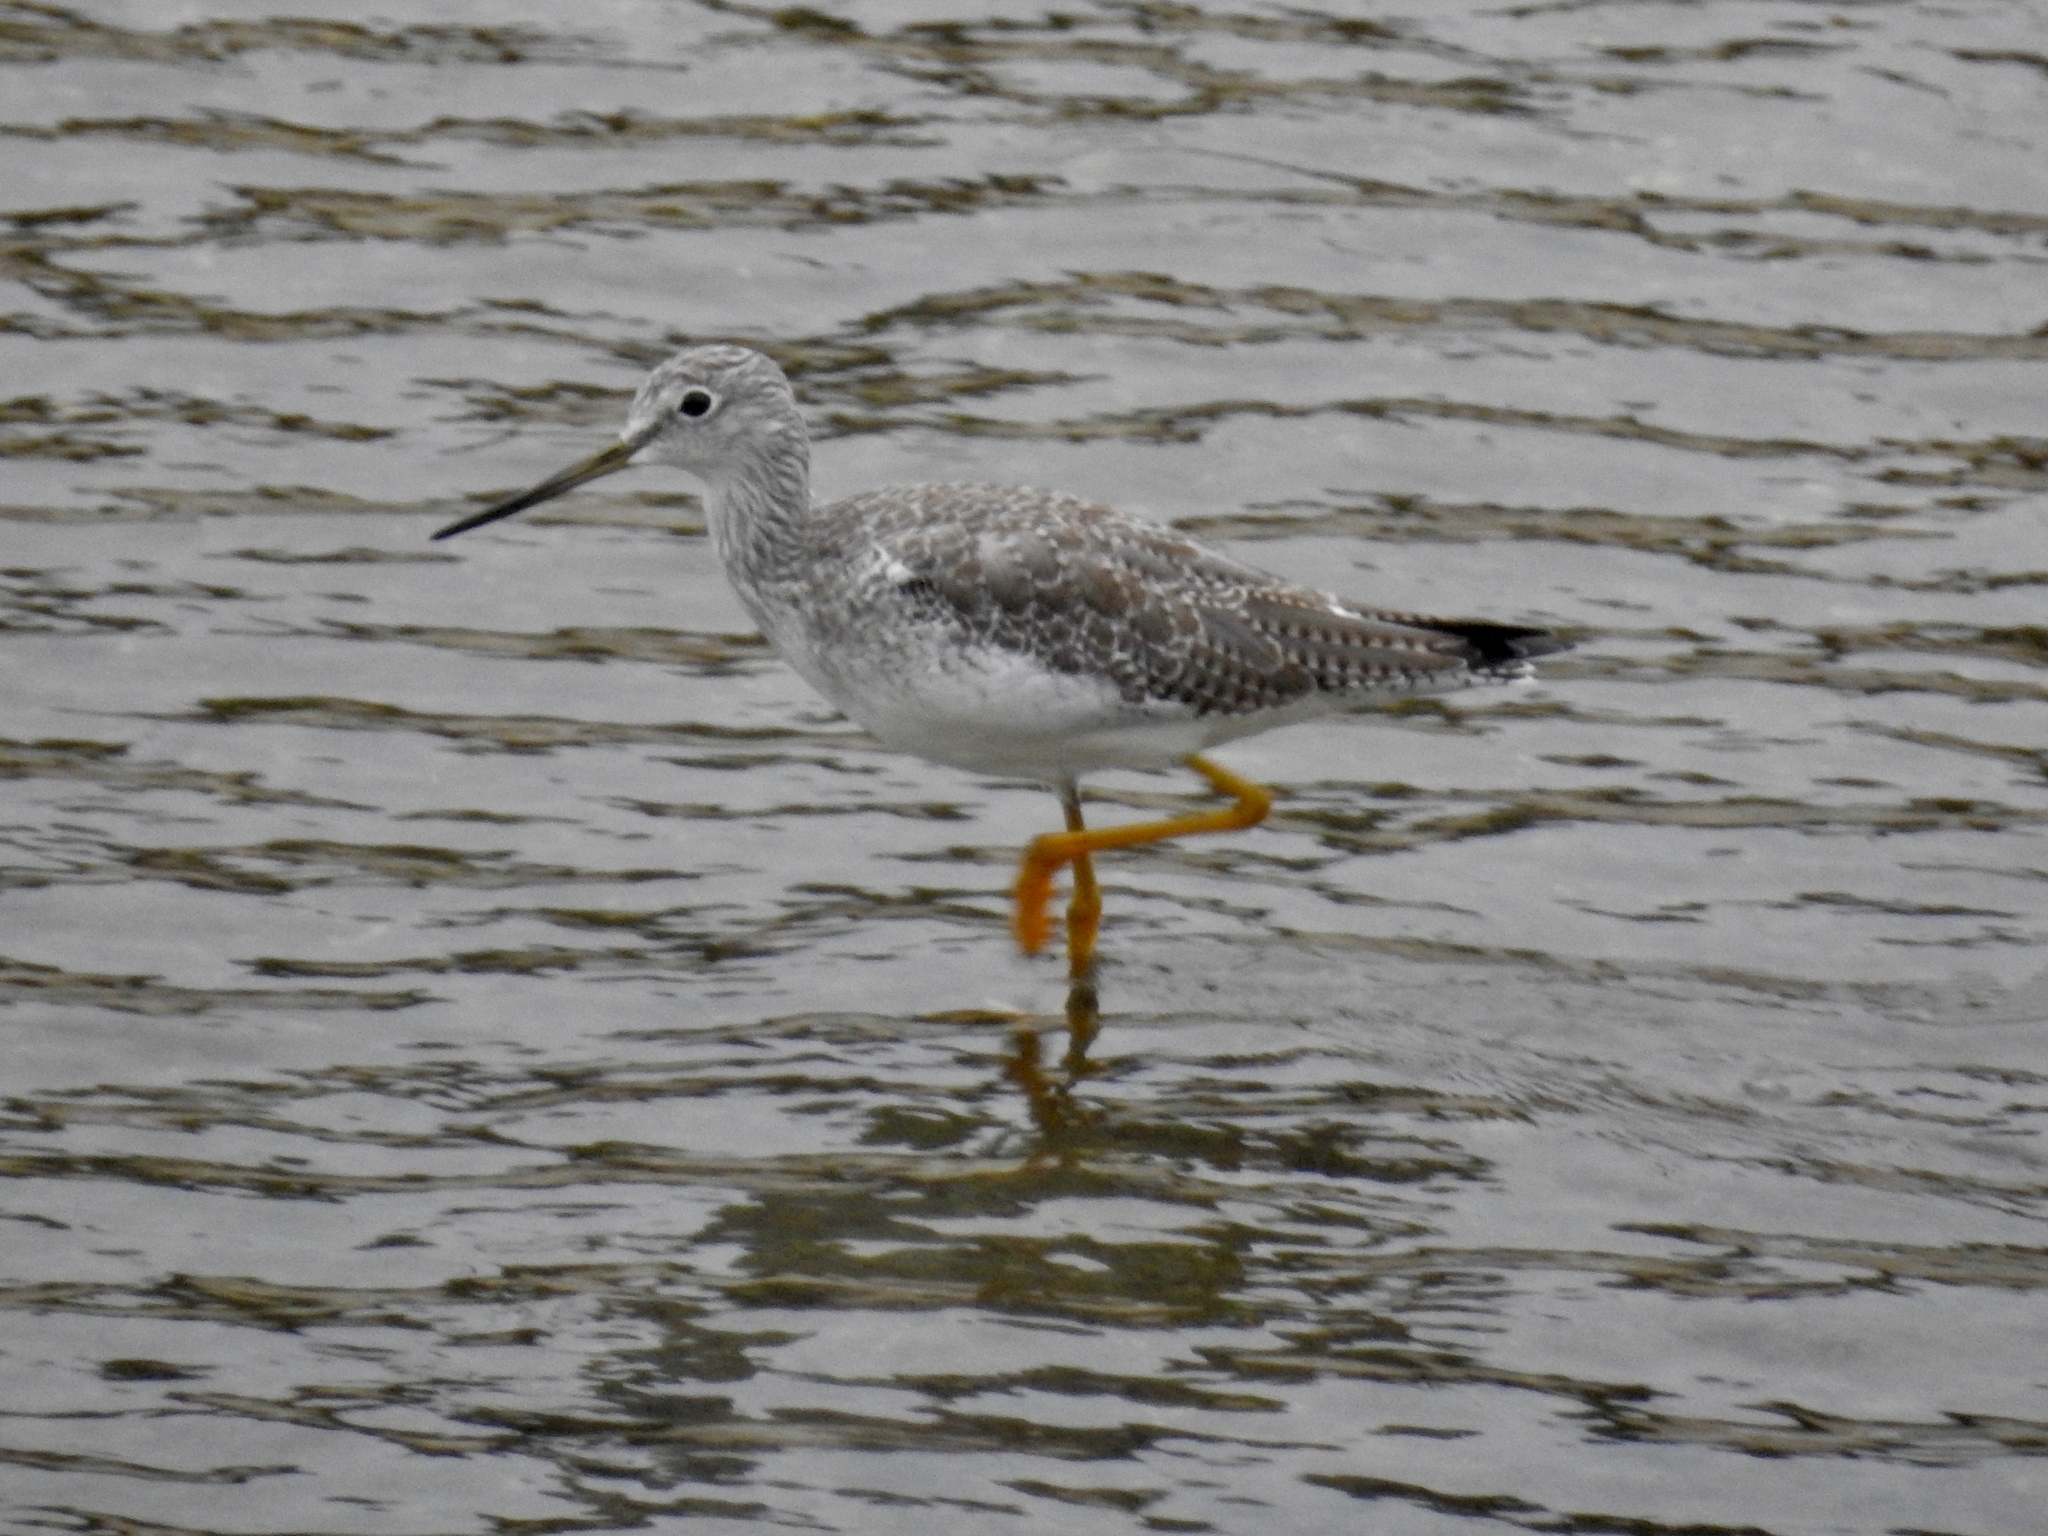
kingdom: Animalia
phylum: Chordata
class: Aves
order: Charadriiformes
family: Scolopacidae
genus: Tringa
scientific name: Tringa melanoleuca
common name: Greater yellowlegs
